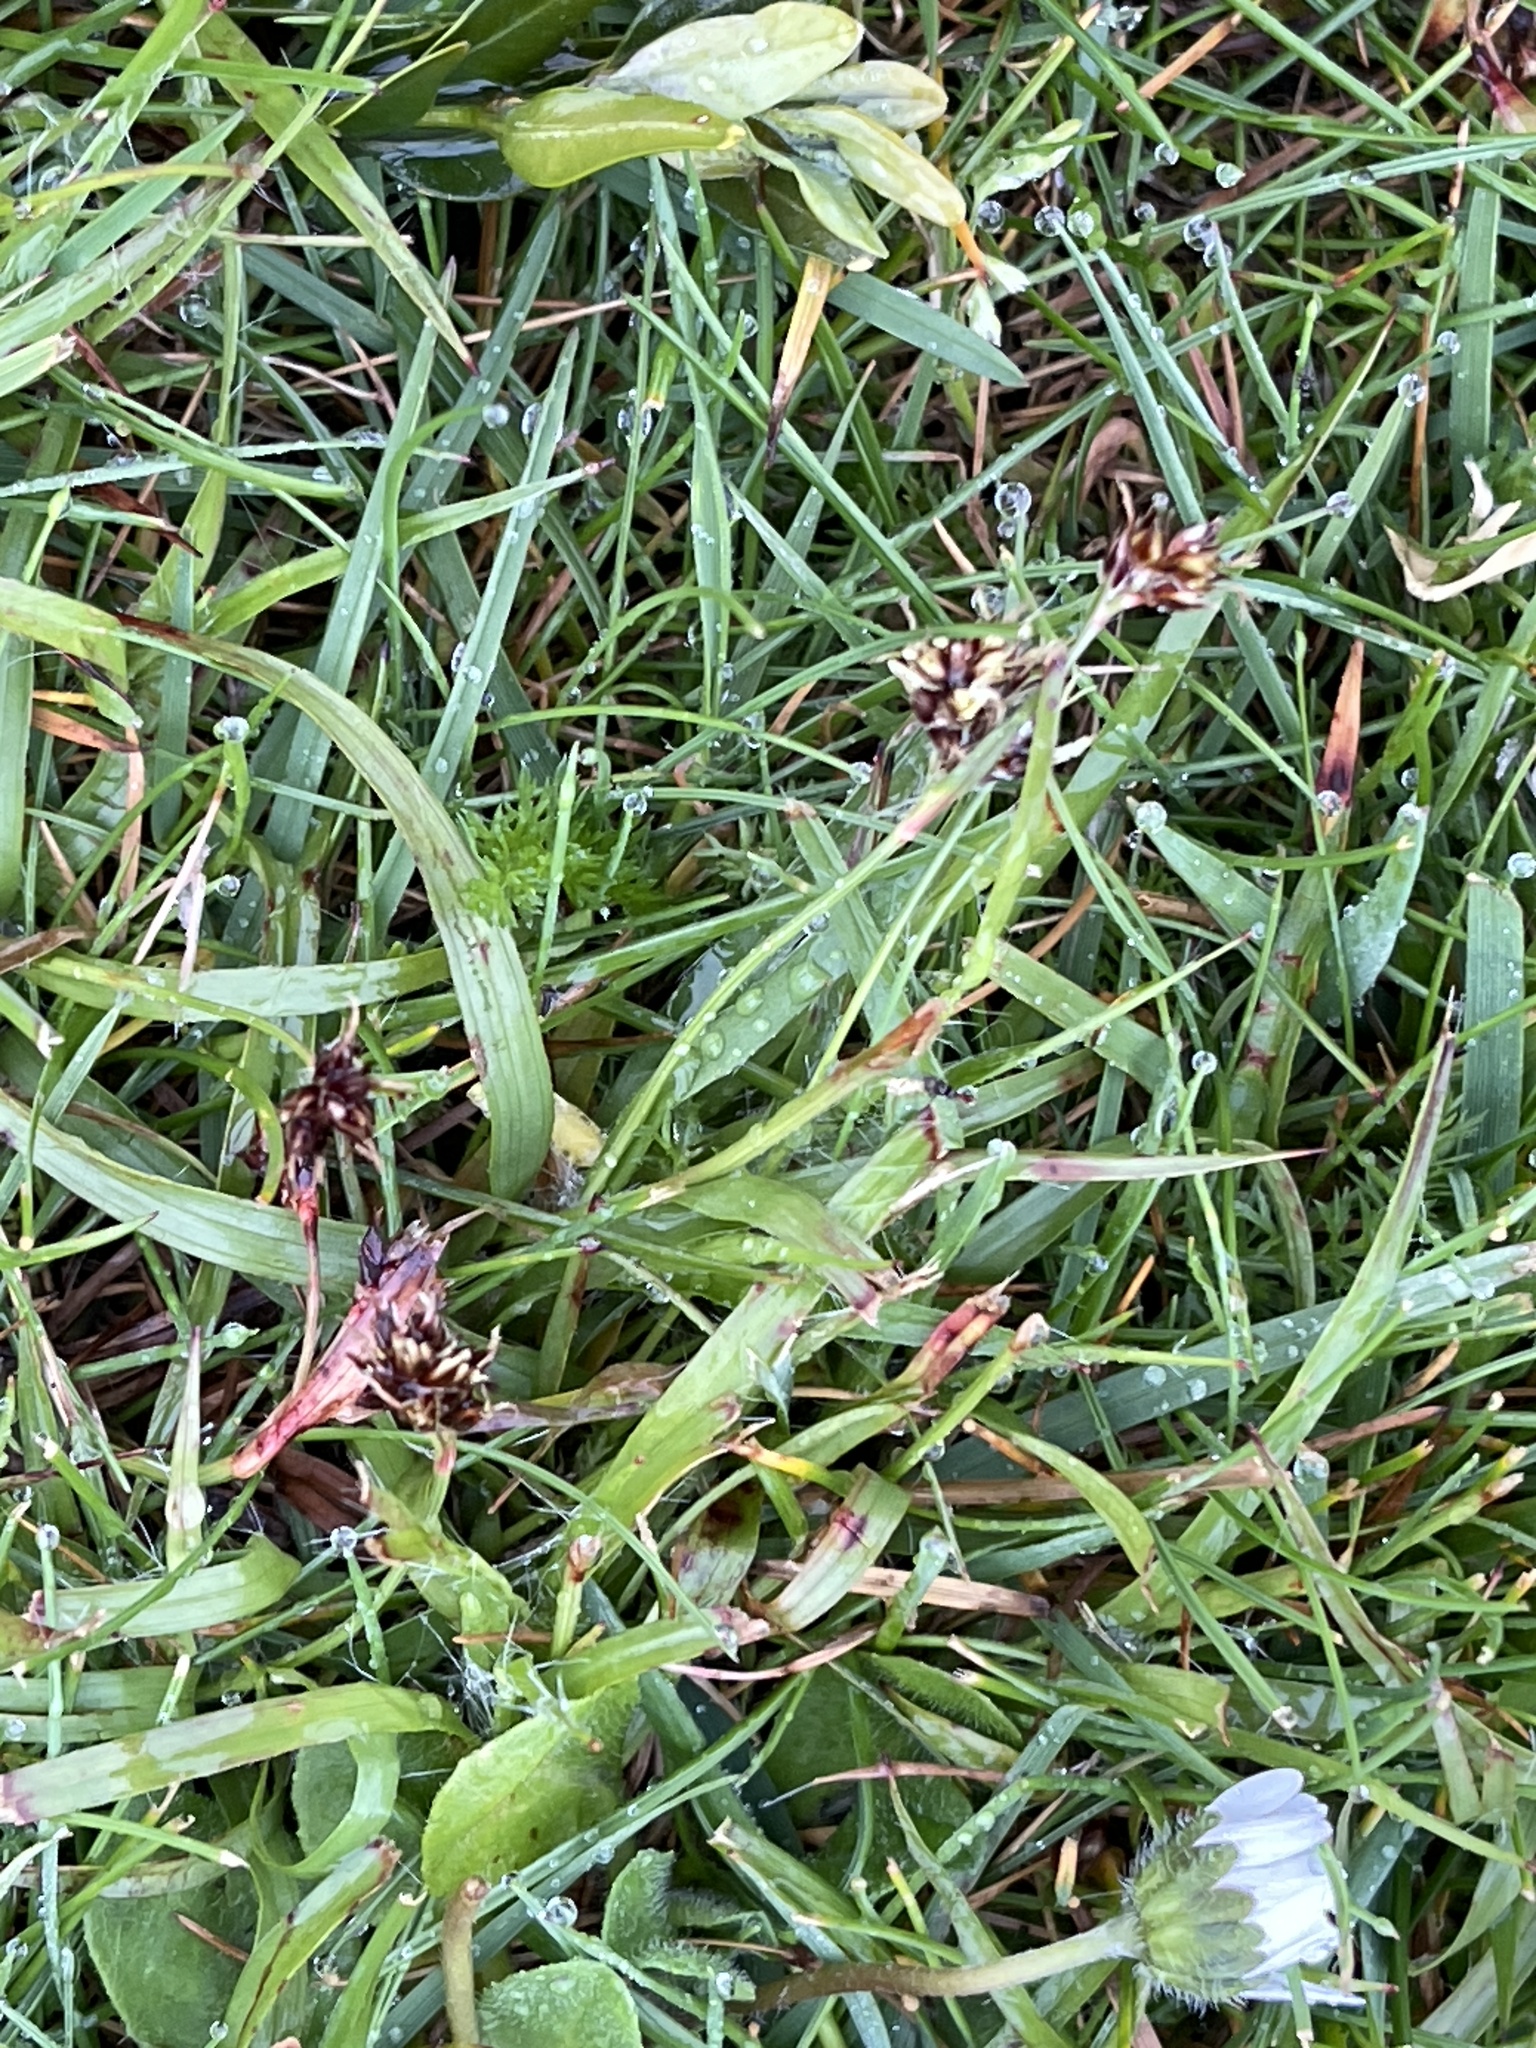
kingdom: Plantae
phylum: Tracheophyta
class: Liliopsida
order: Poales
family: Juncaceae
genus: Luzula
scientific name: Luzula campestris
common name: Field wood-rush
